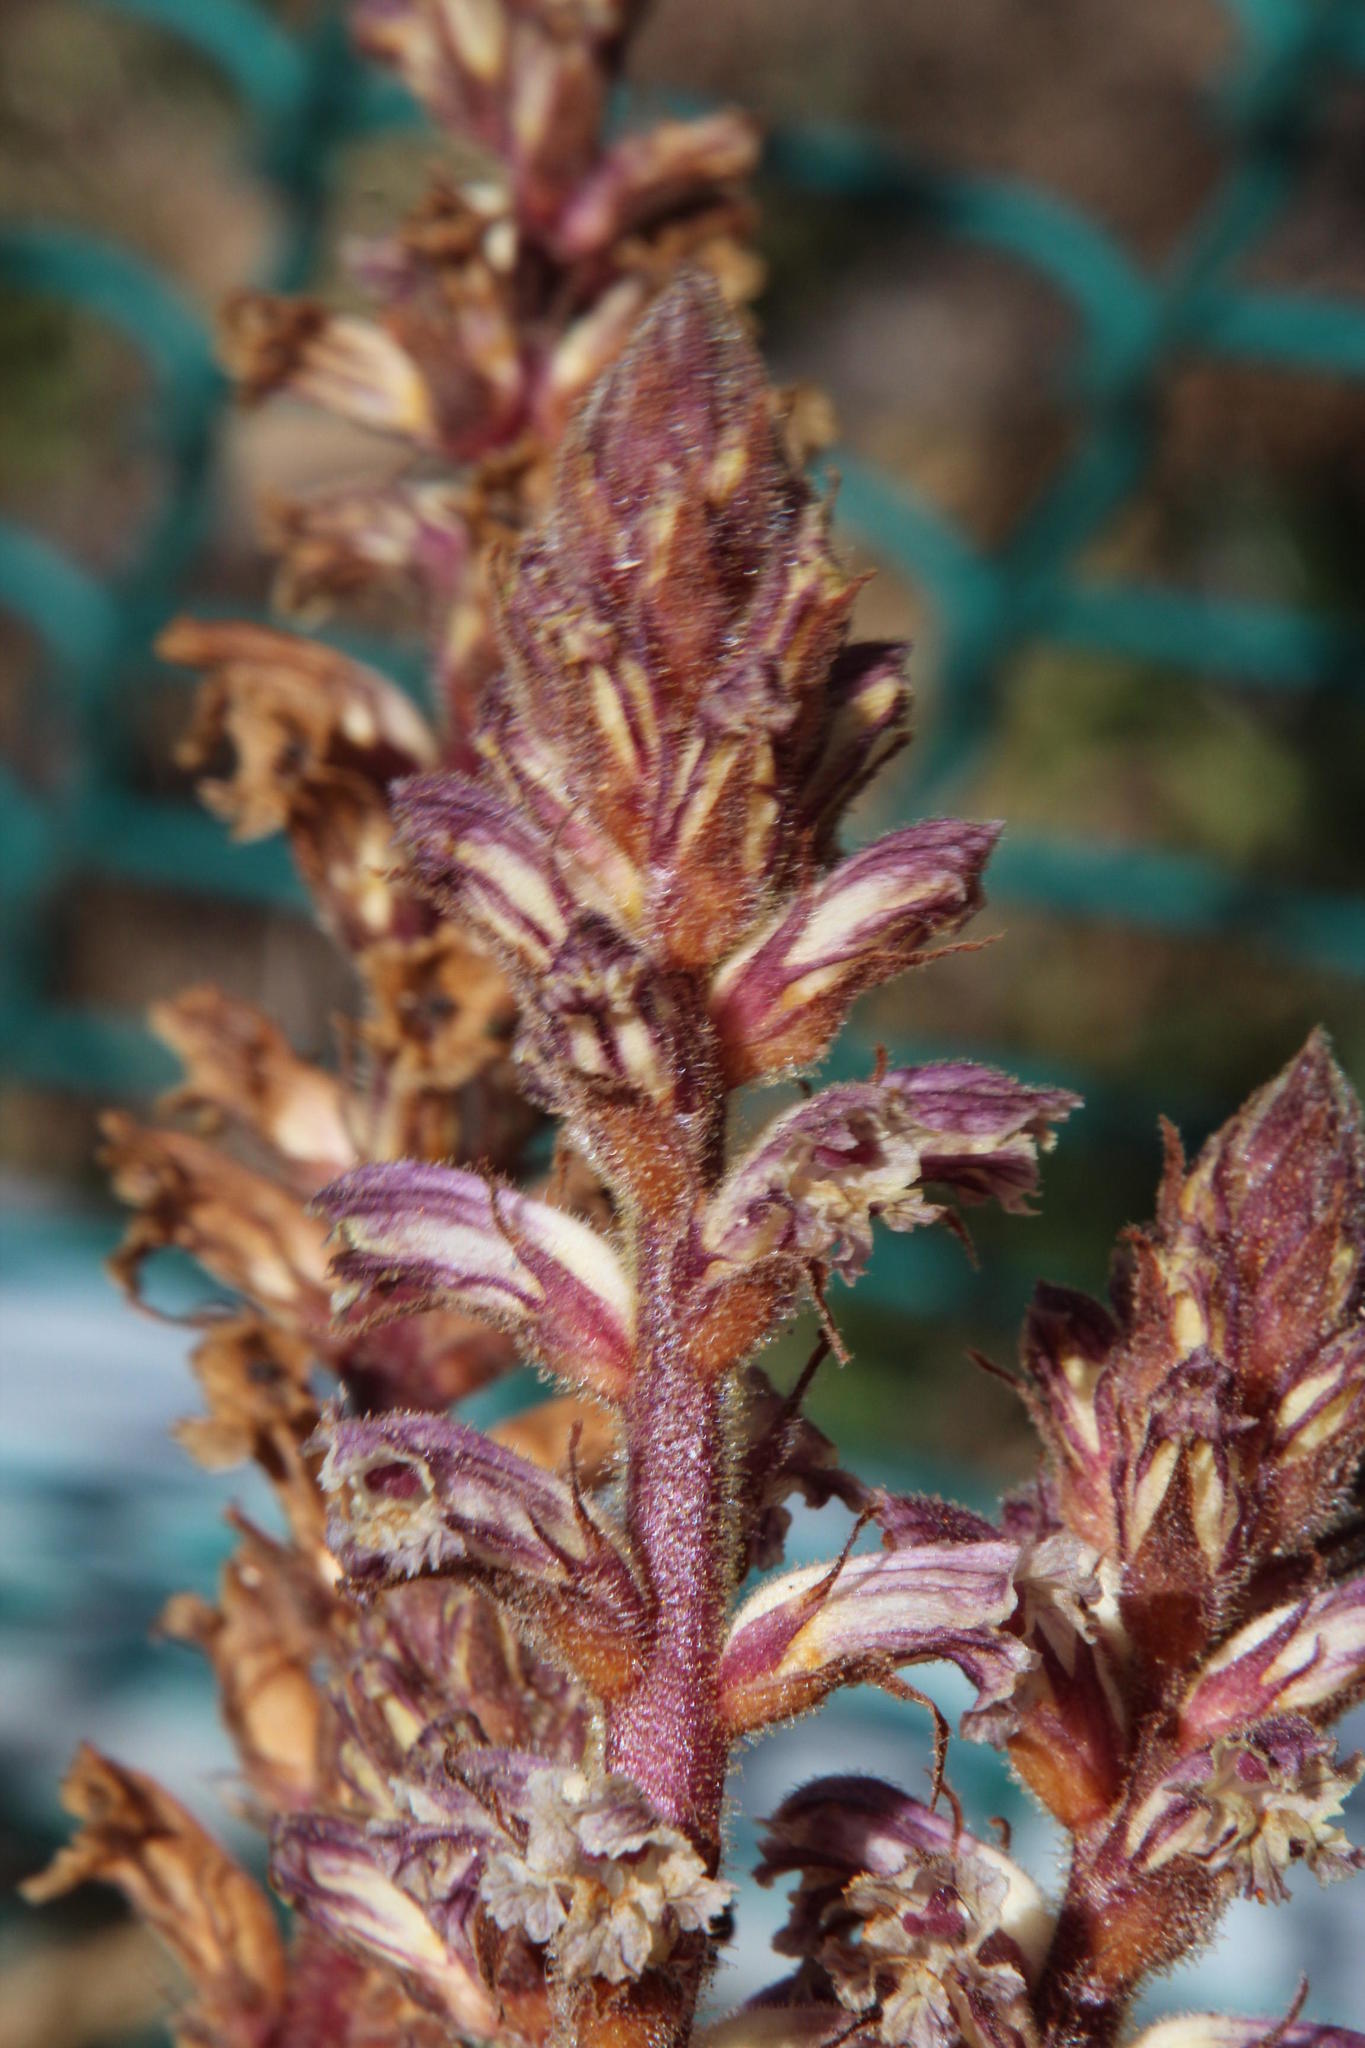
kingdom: Plantae
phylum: Tracheophyta
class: Magnoliopsida
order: Lamiales
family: Orobanchaceae
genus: Orobanche
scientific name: Orobanche minor
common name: Common broomrape
